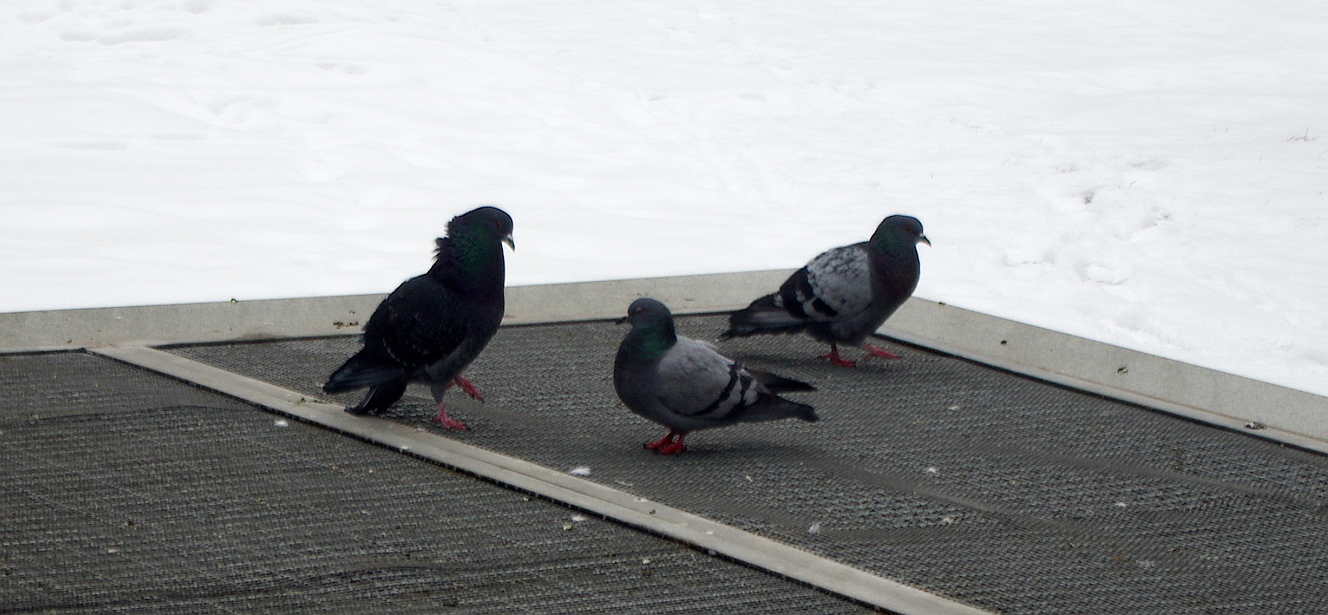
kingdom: Animalia
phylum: Chordata
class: Aves
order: Columbiformes
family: Columbidae
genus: Columba
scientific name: Columba livia
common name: Rock pigeon
